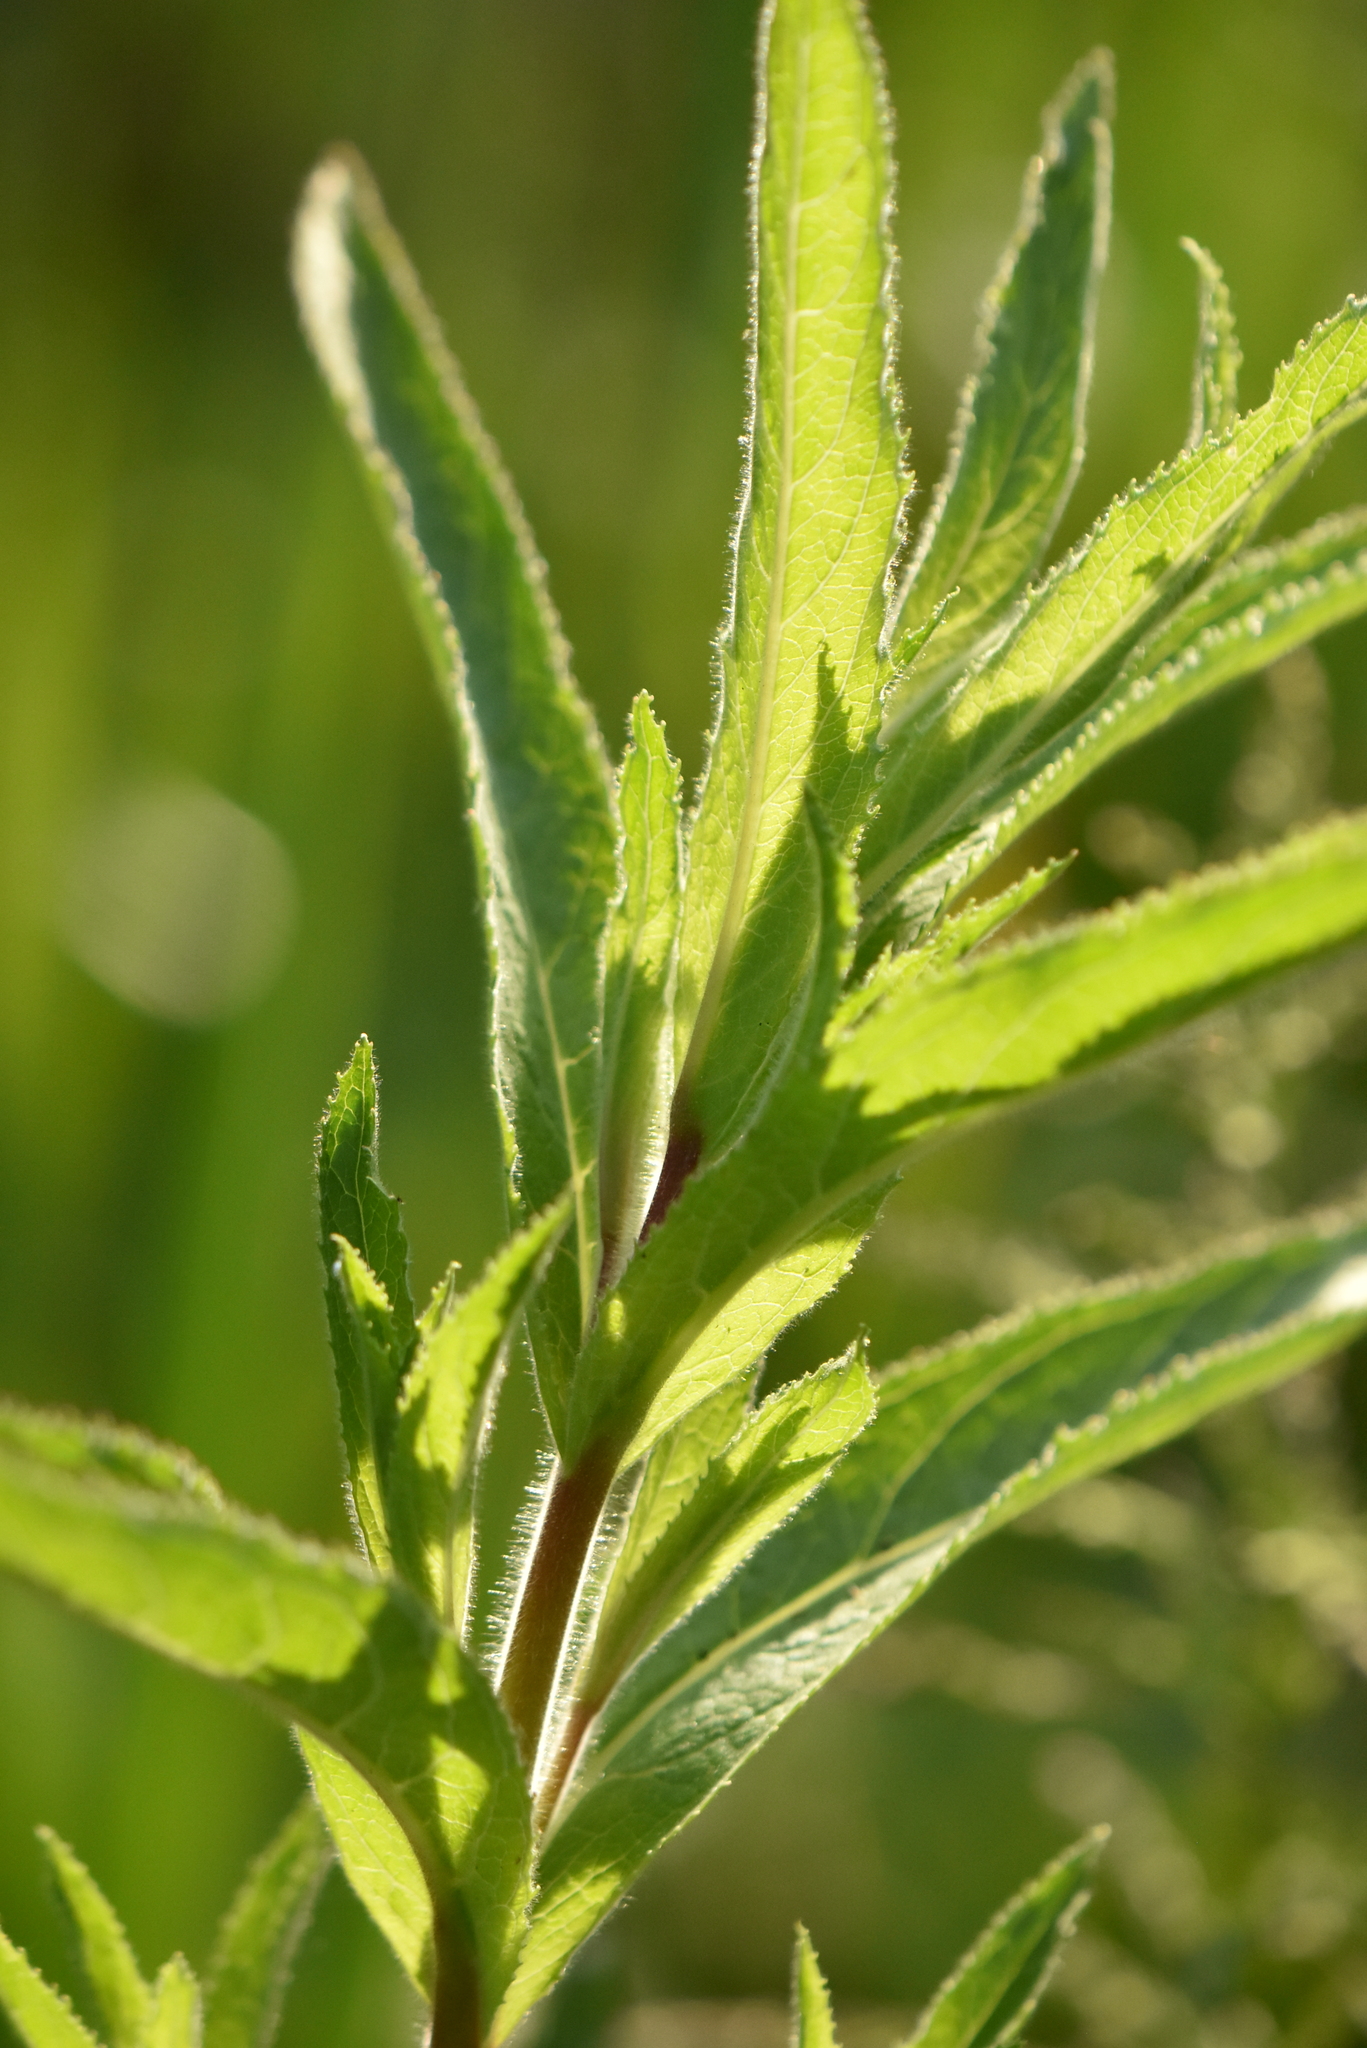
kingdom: Plantae
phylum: Tracheophyta
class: Magnoliopsida
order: Myrtales
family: Onagraceae
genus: Epilobium
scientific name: Epilobium hirsutum
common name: Great willowherb
